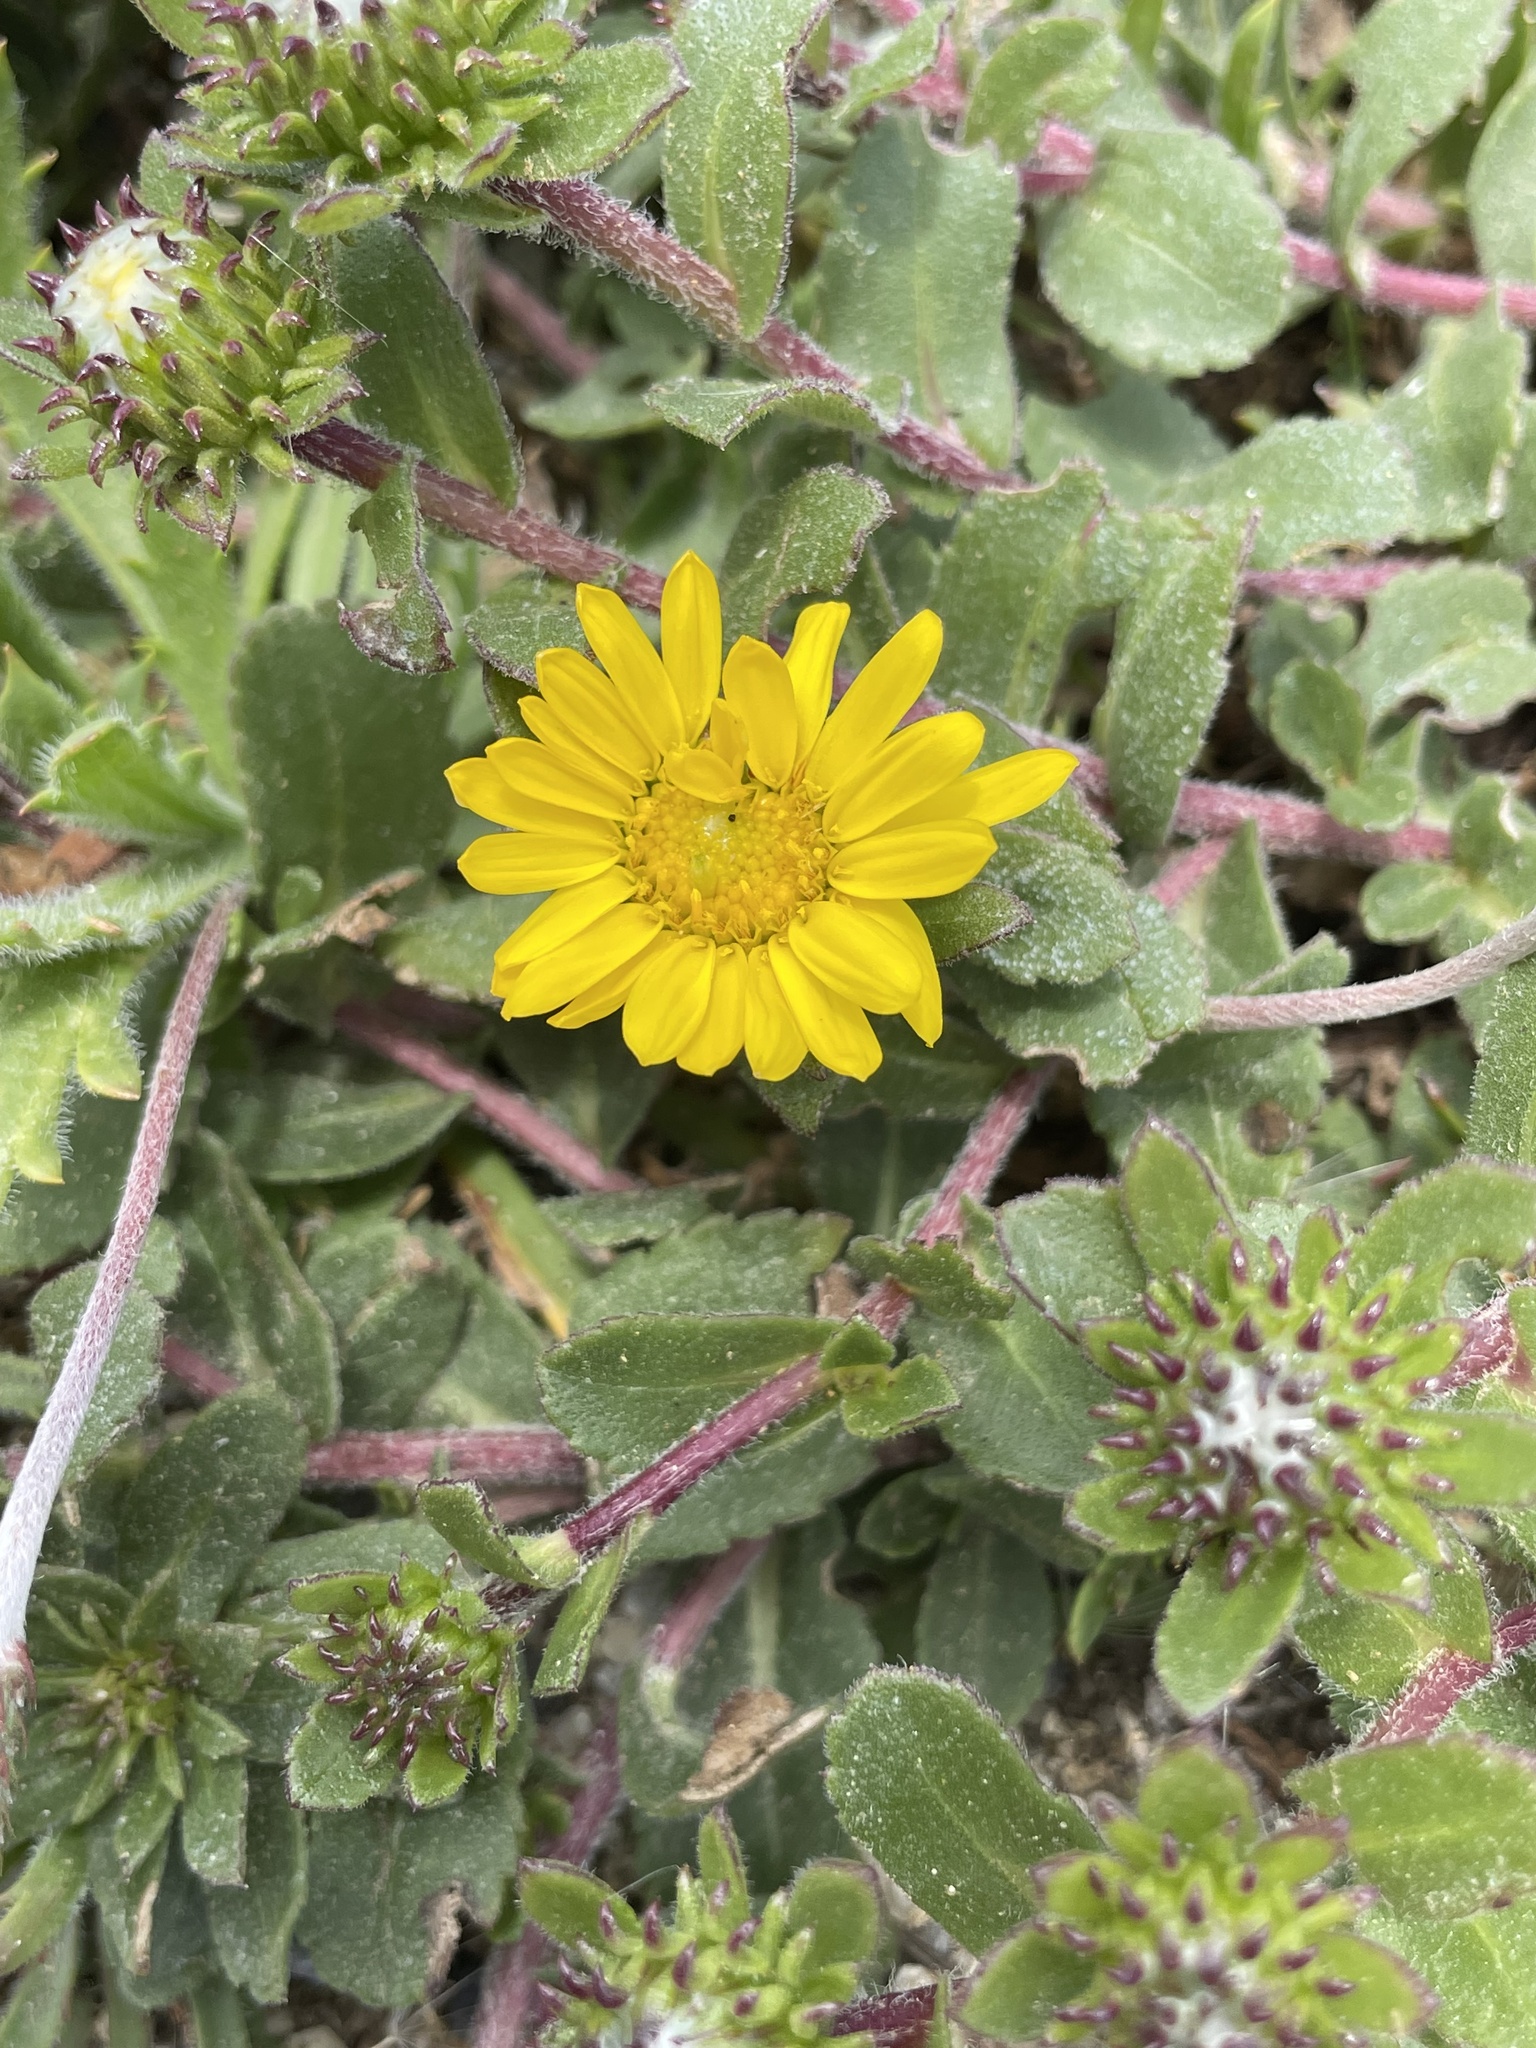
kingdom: Plantae
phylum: Tracheophyta
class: Magnoliopsida
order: Asterales
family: Asteraceae
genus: Grindelia
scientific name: Grindelia hirsutula
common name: Hairy gumweed
